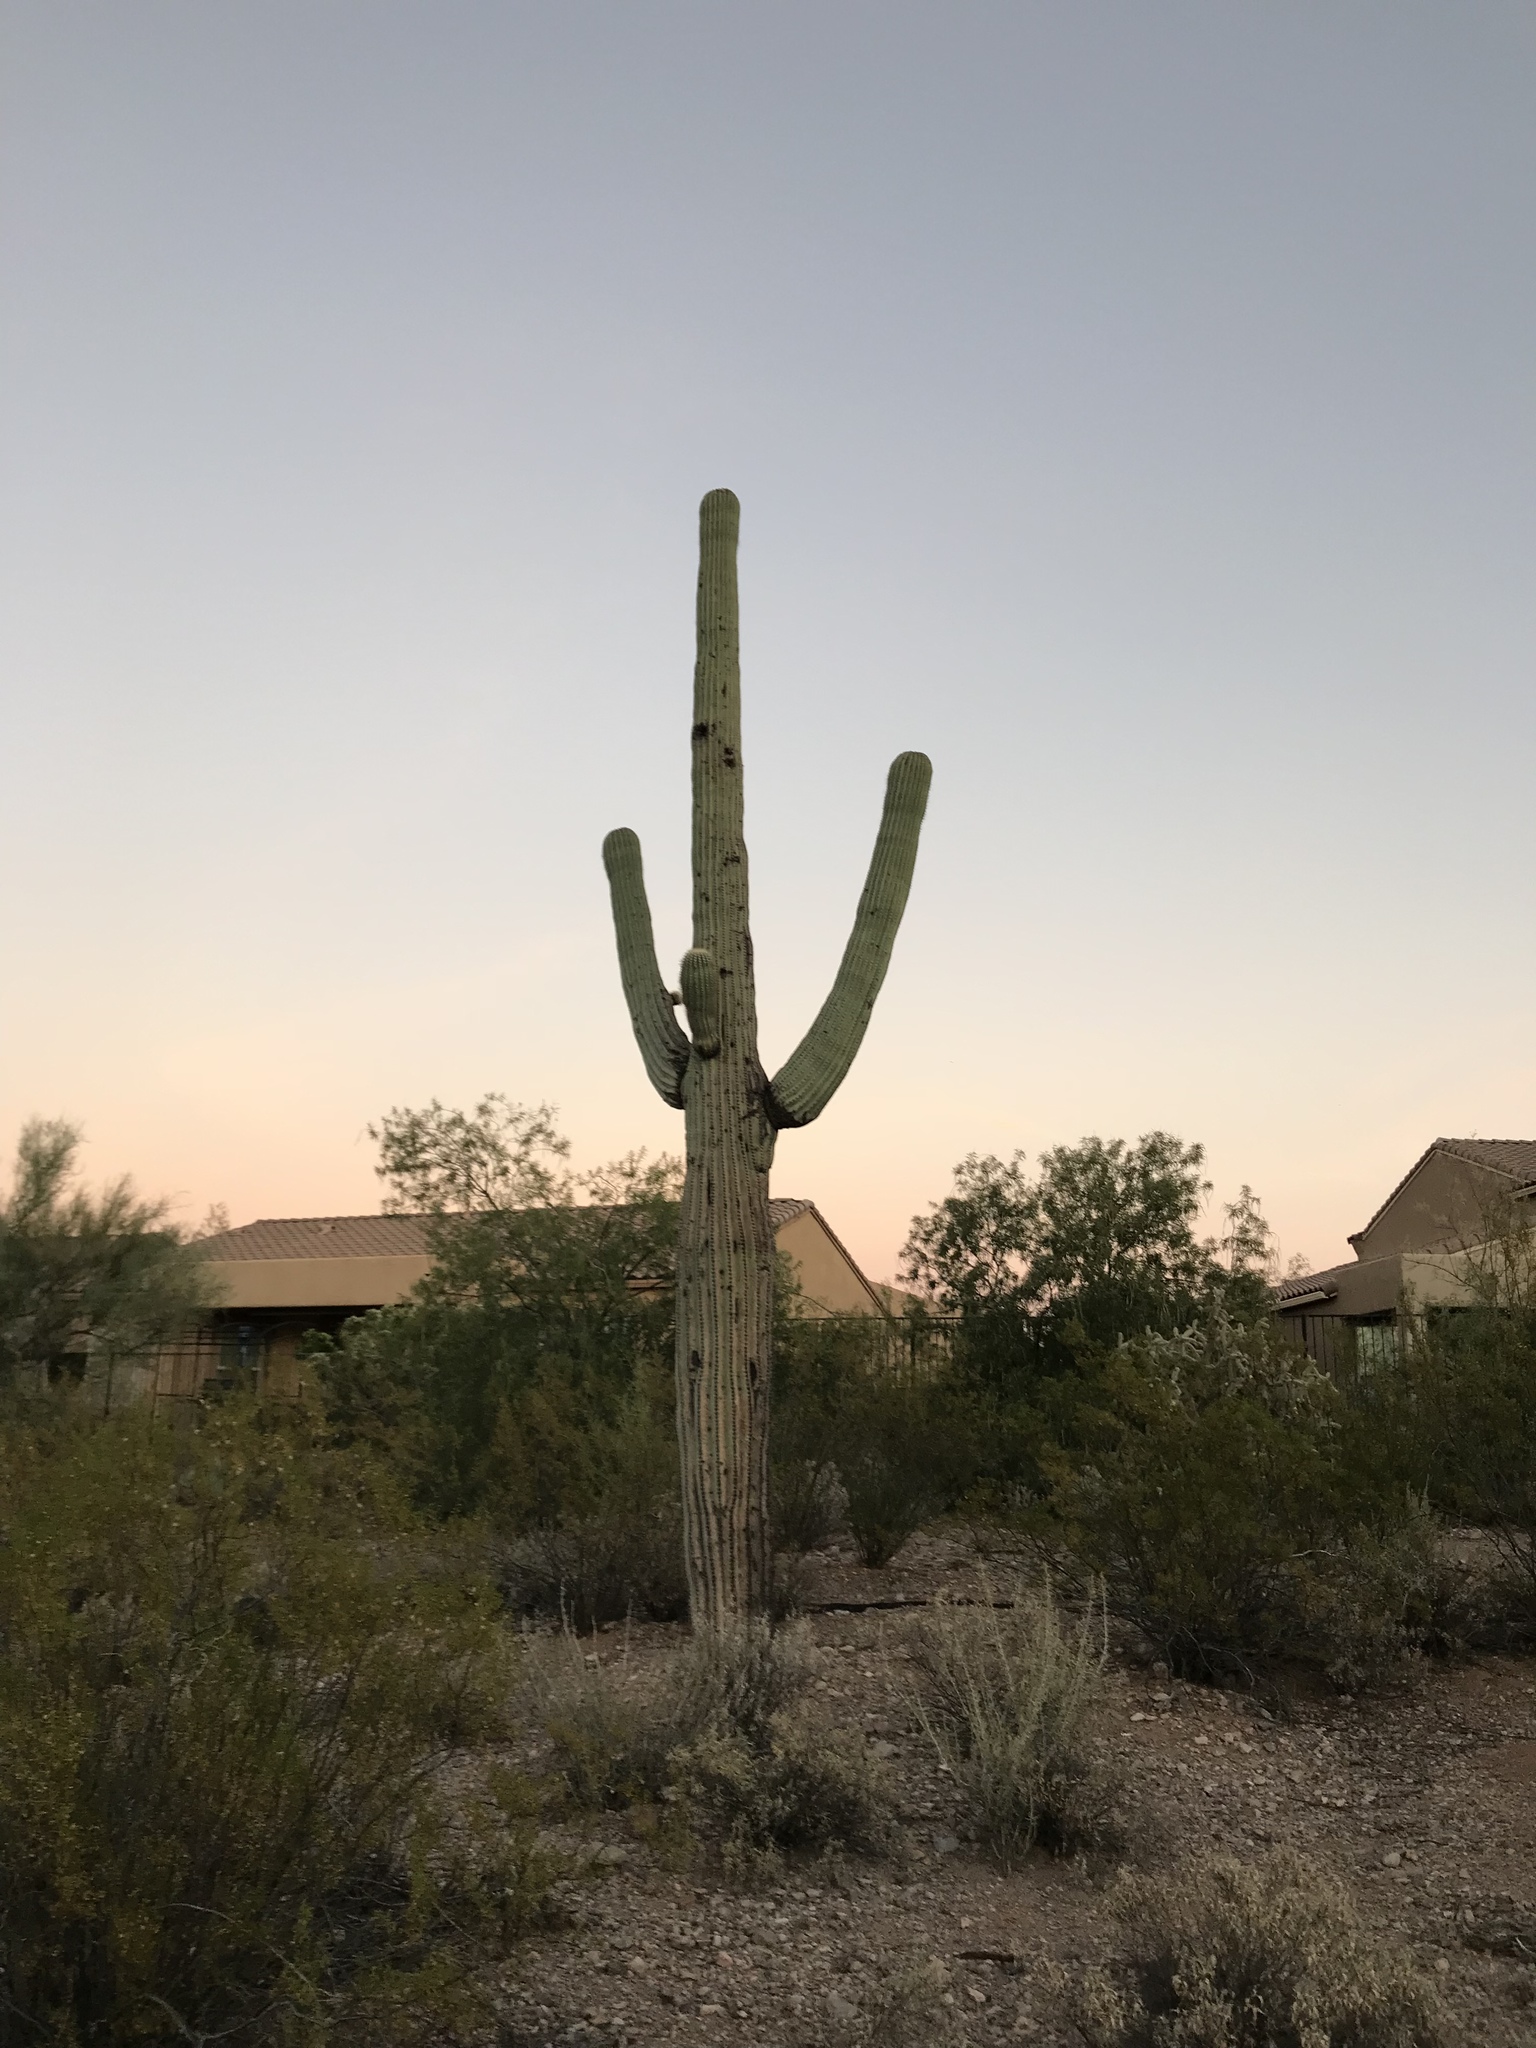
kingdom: Plantae
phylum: Tracheophyta
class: Magnoliopsida
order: Caryophyllales
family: Cactaceae
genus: Carnegiea
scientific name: Carnegiea gigantea
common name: Saguaro
